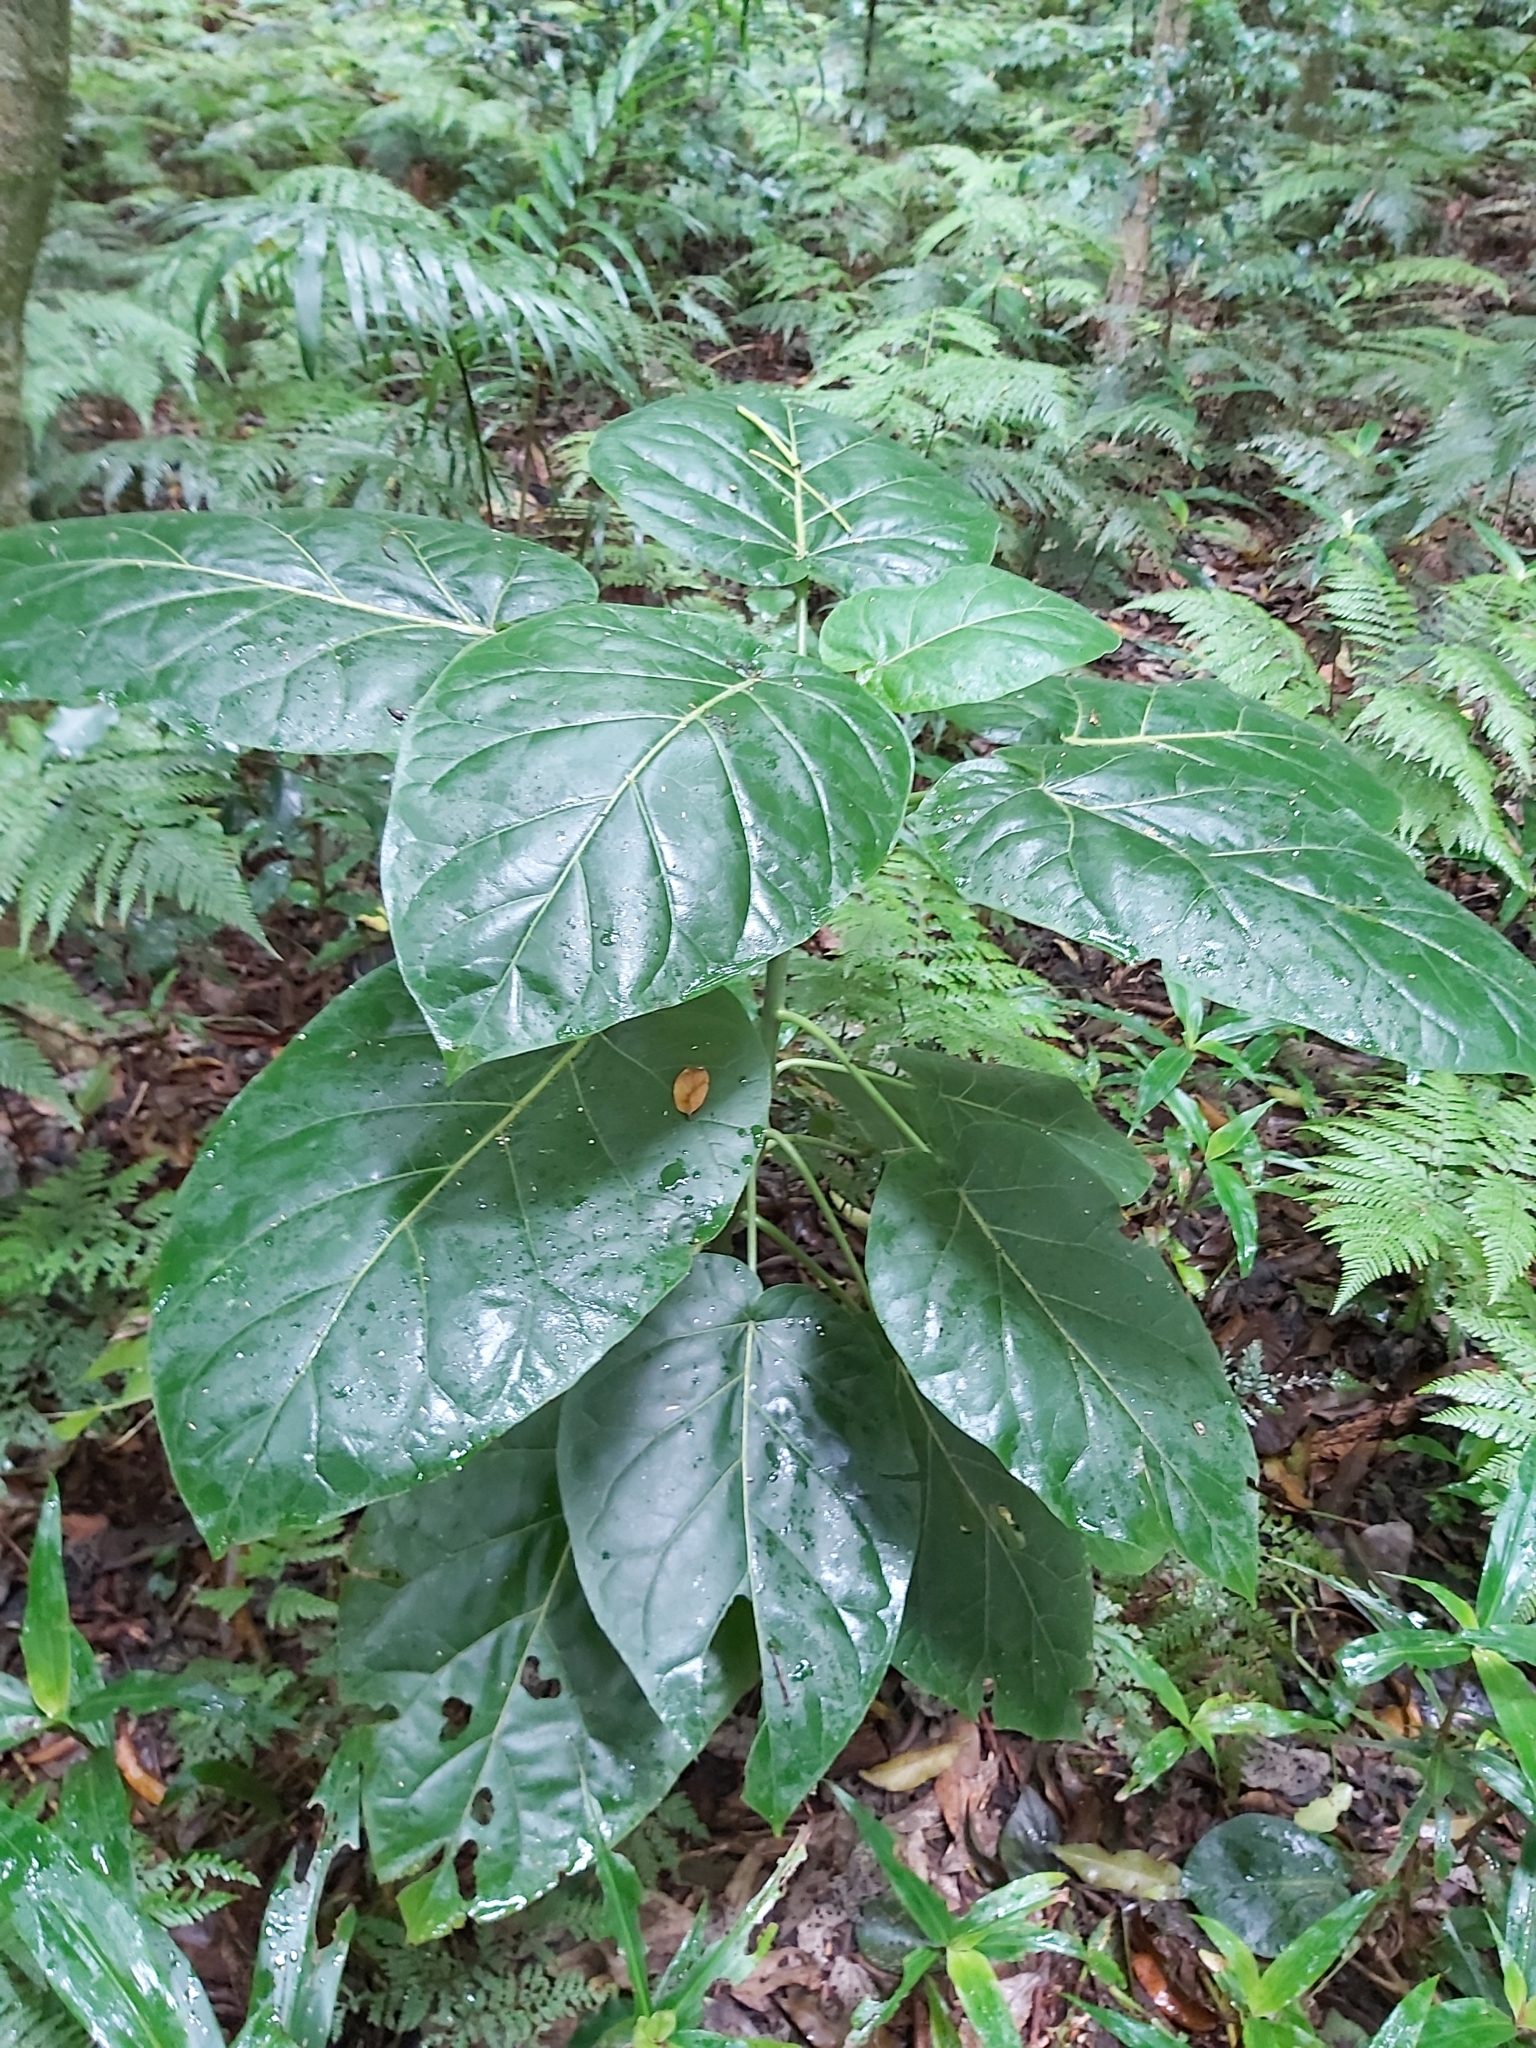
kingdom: Plantae
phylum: Tracheophyta
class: Magnoliopsida
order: Solanales
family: Solanaceae
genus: Solanum
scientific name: Solanum betaceum
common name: Tamarillo
